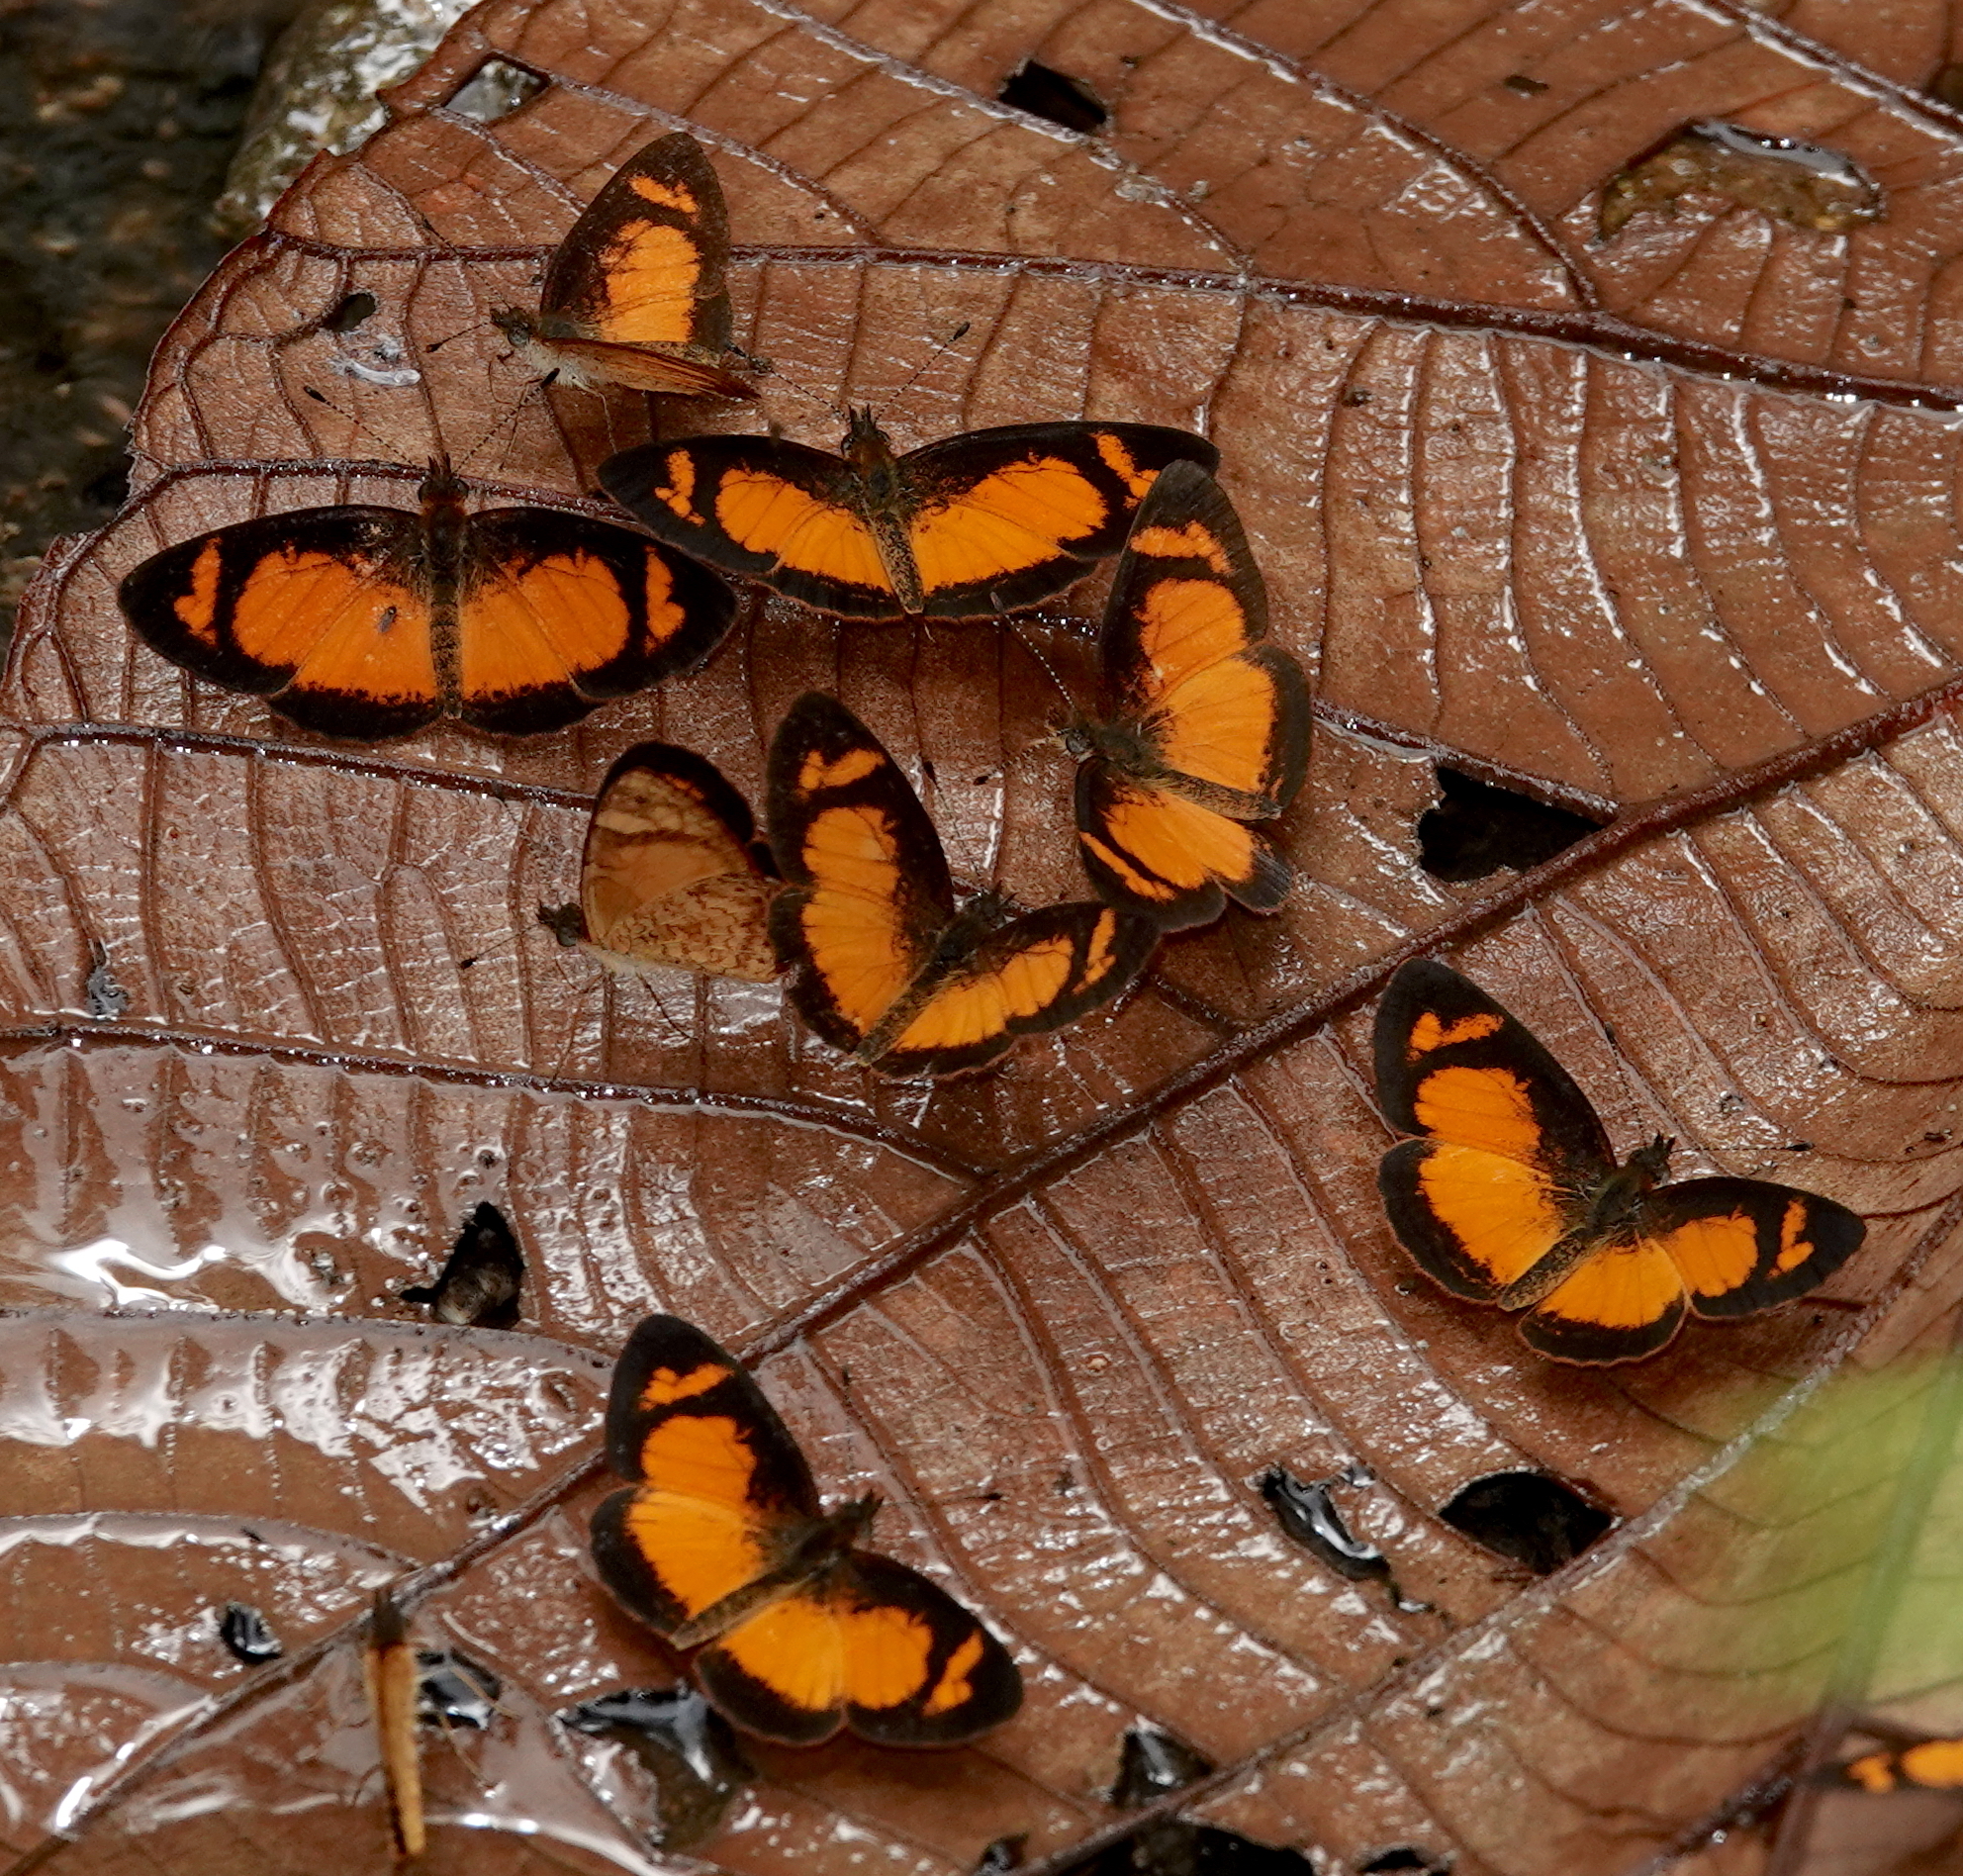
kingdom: Animalia
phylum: Arthropoda
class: Insecta
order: Lepidoptera
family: Nymphalidae
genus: Tegosa
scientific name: Tegosa anieta
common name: Black-bordered crescent
